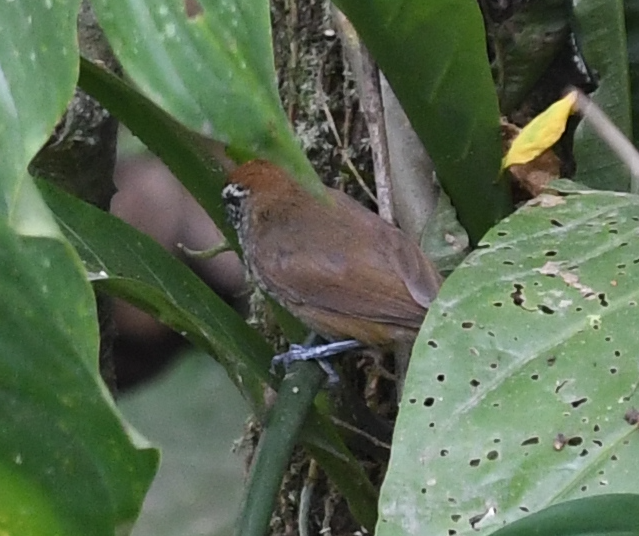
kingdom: Animalia
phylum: Chordata
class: Aves
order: Passeriformes
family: Troglodytidae
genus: Pheugopedius
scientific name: Pheugopedius maculipectus
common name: Spot-breasted wren
